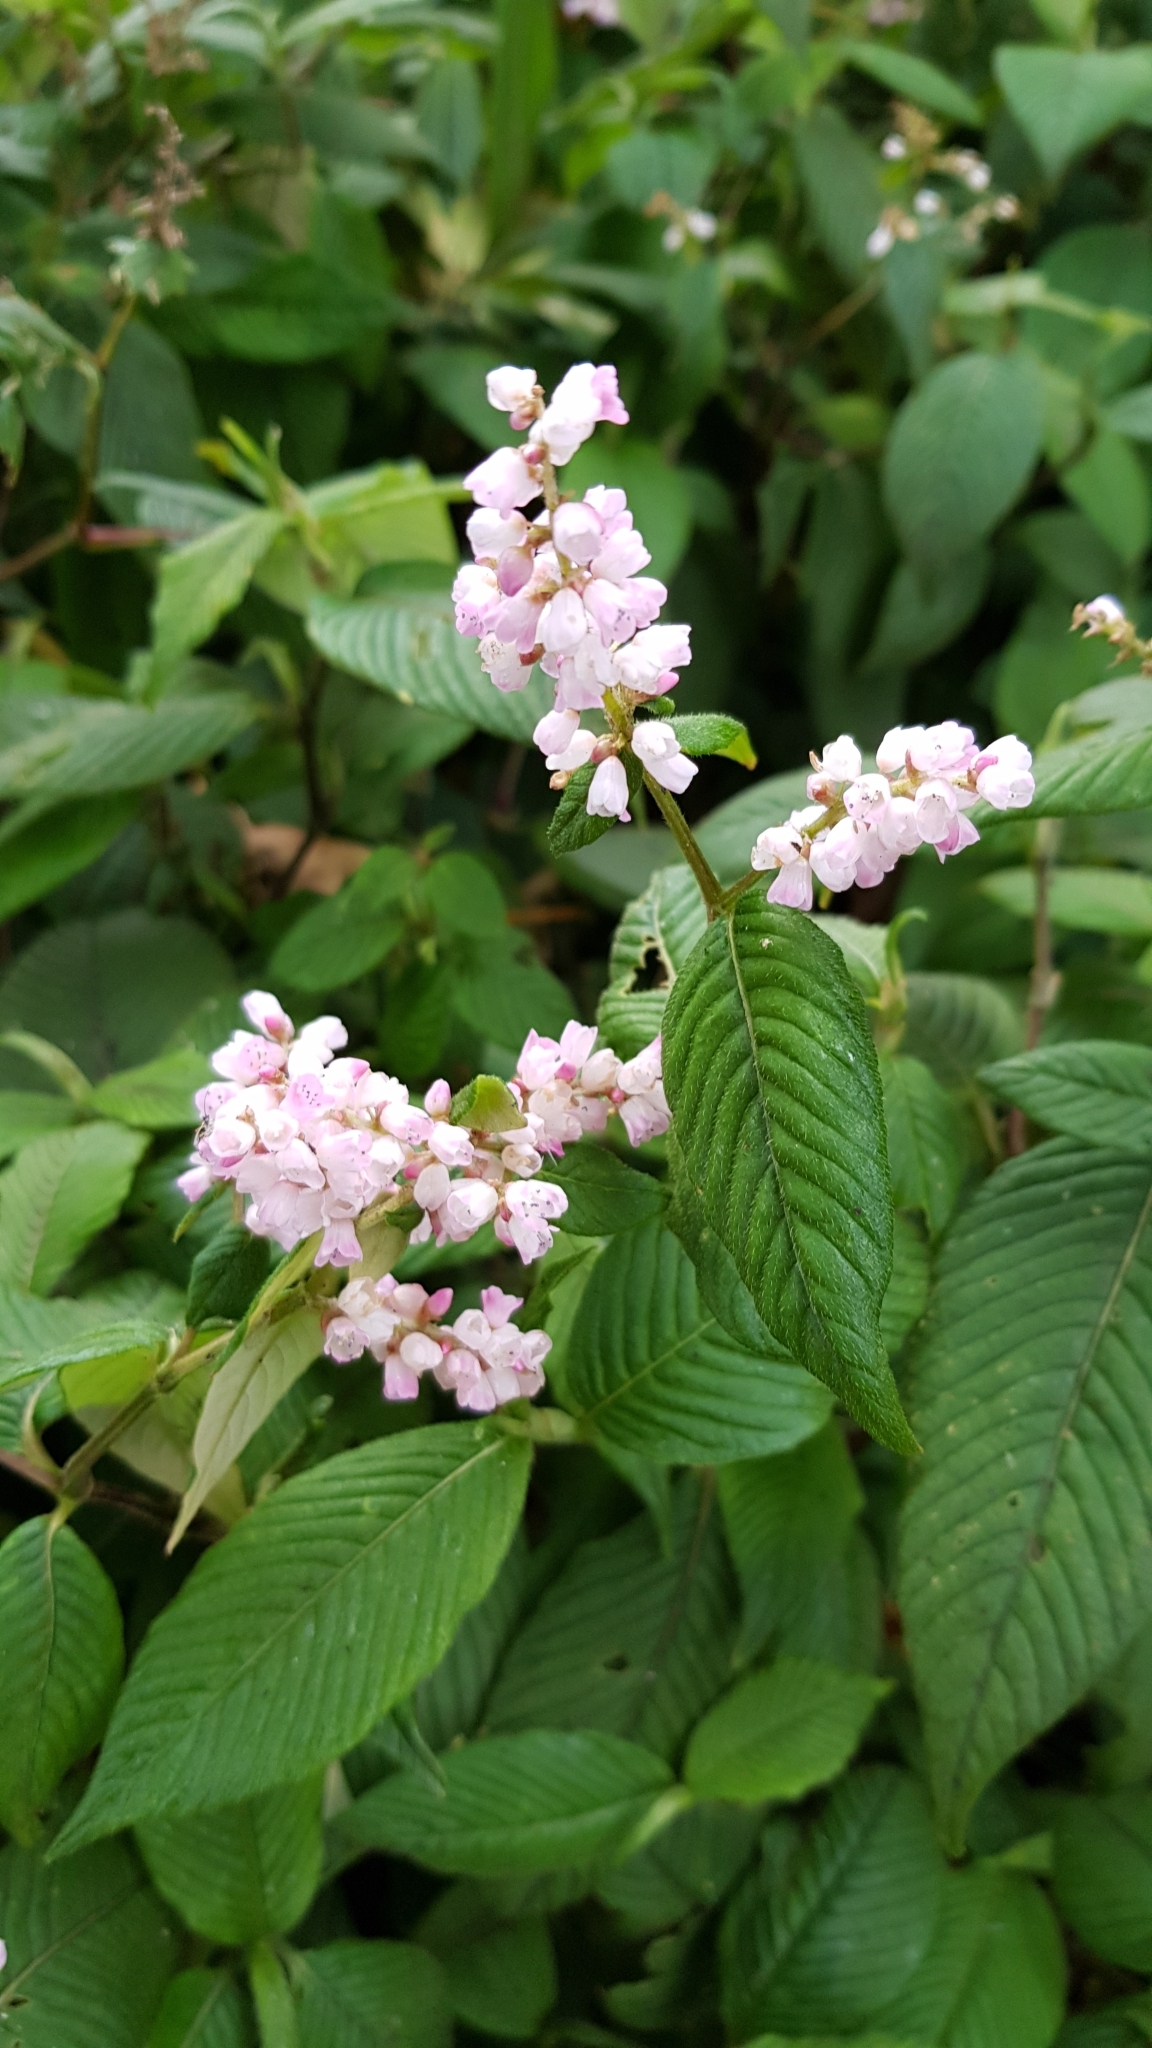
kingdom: Plantae
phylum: Tracheophyta
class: Magnoliopsida
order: Caryophyllales
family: Polygonaceae
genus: Koenigia
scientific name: Koenigia campanulata
